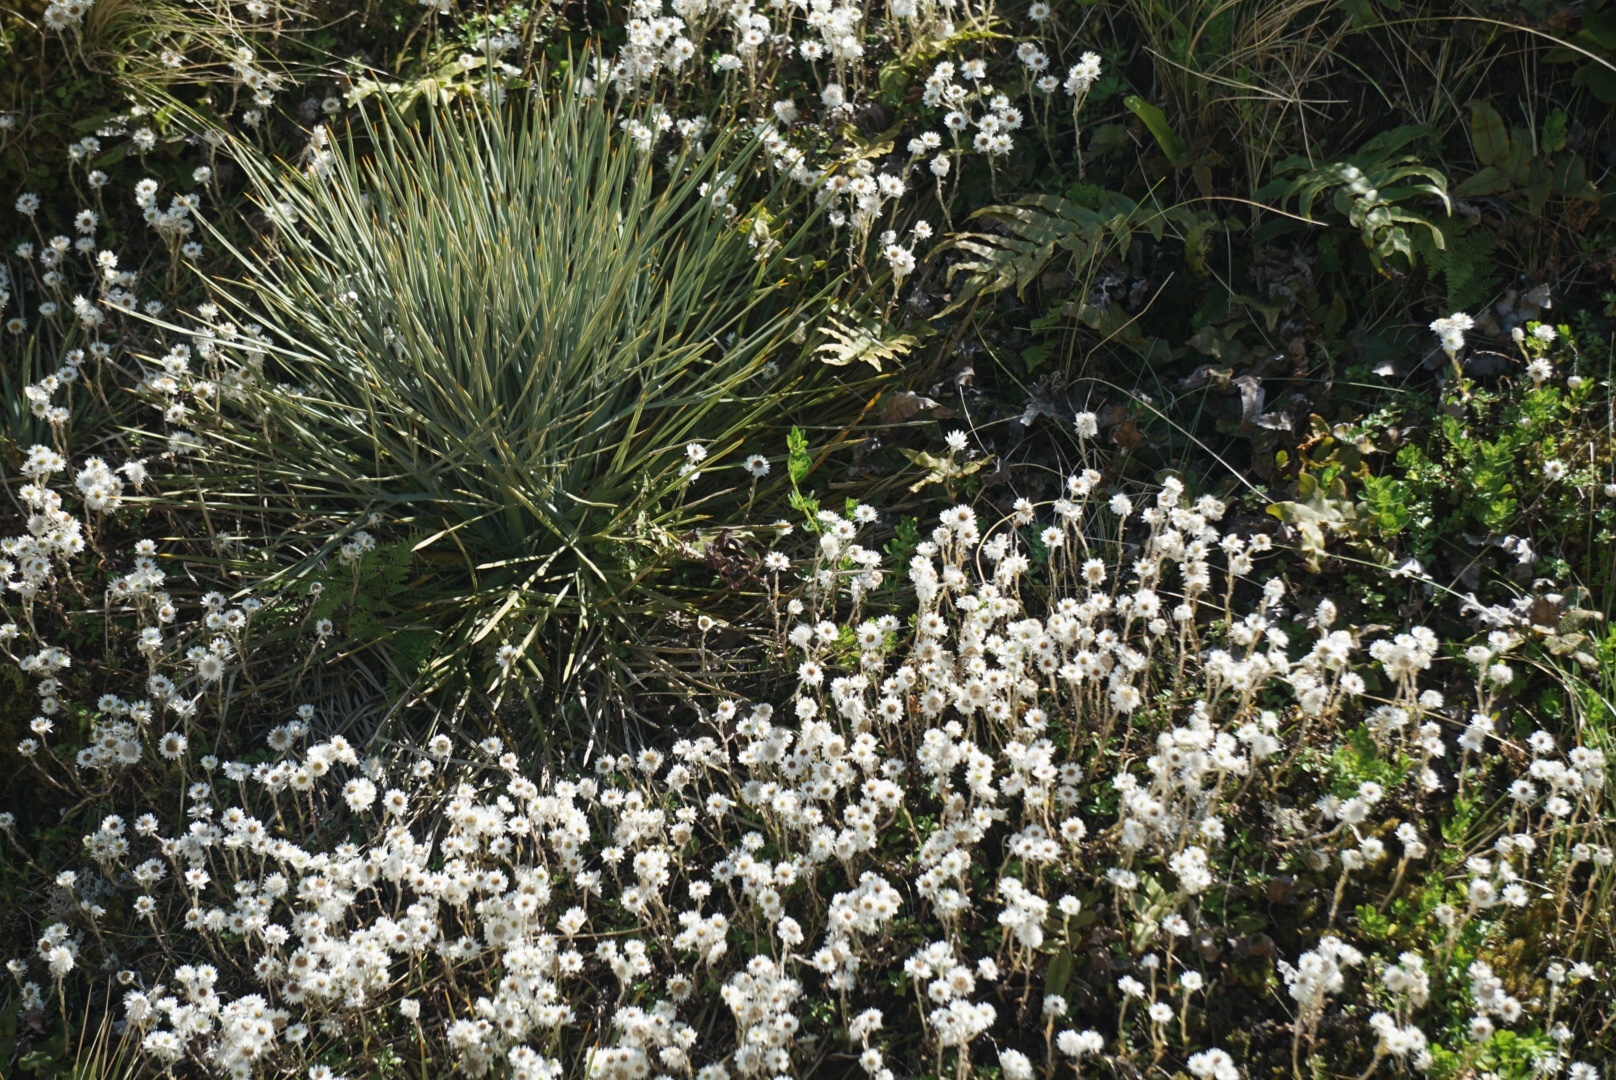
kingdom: Plantae
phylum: Tracheophyta
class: Magnoliopsida
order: Asterales
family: Asteraceae
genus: Anaphalioides
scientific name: Anaphalioides bellidioides
